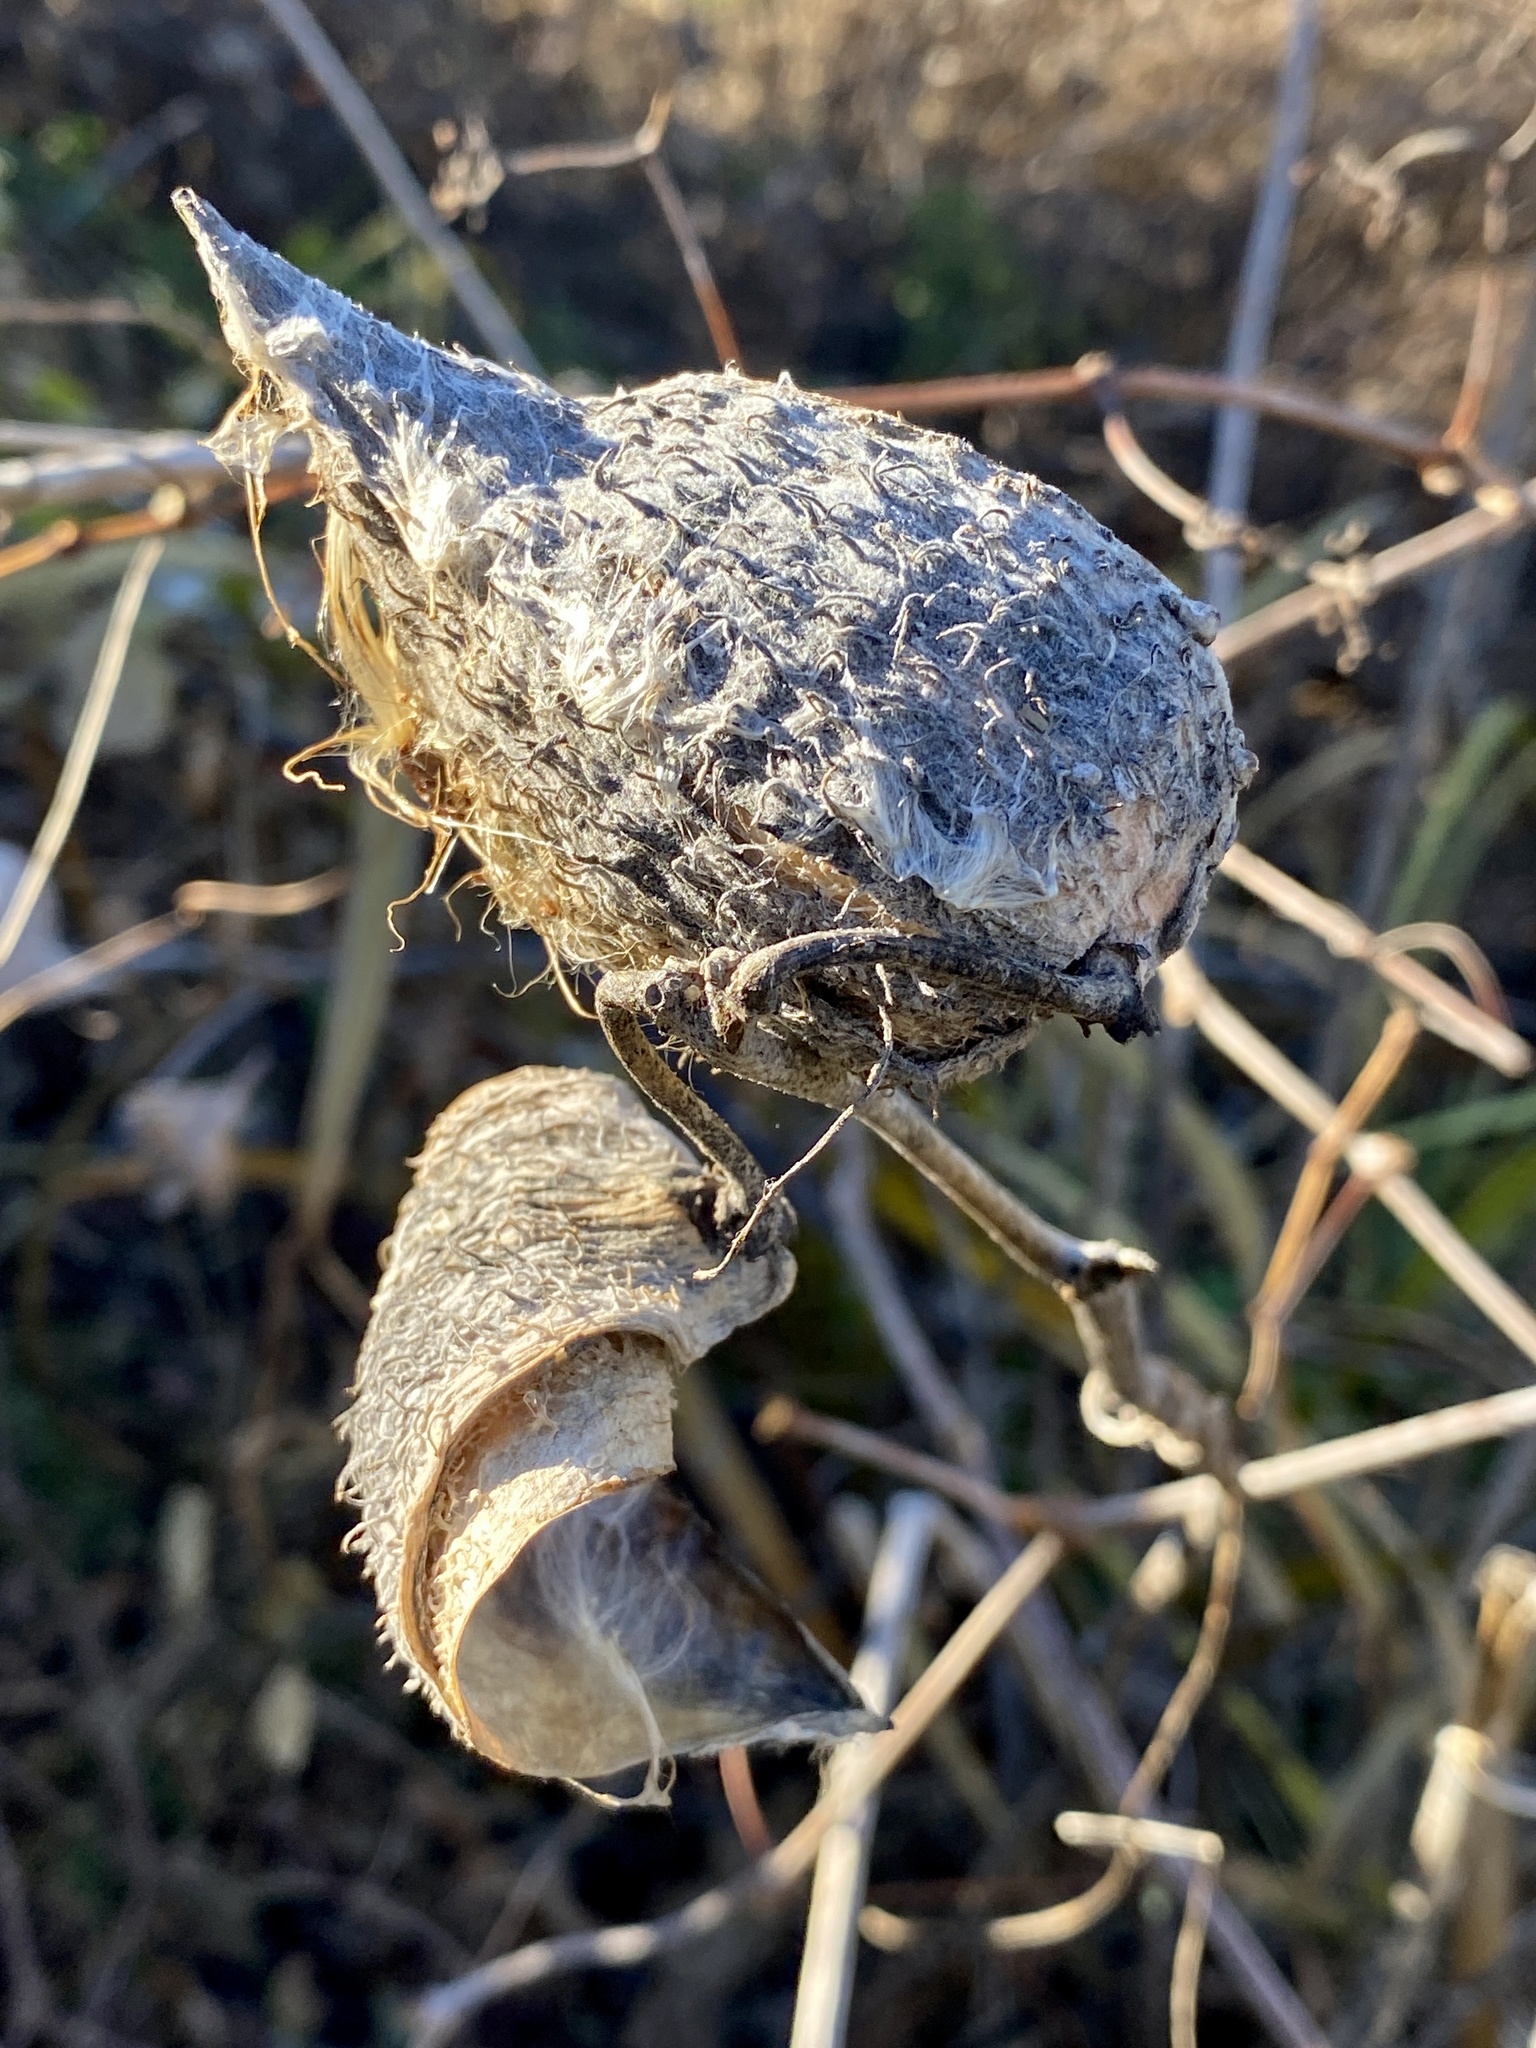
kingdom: Plantae
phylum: Tracheophyta
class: Magnoliopsida
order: Gentianales
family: Apocynaceae
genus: Asclepias
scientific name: Asclepias syriaca
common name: Common milkweed
